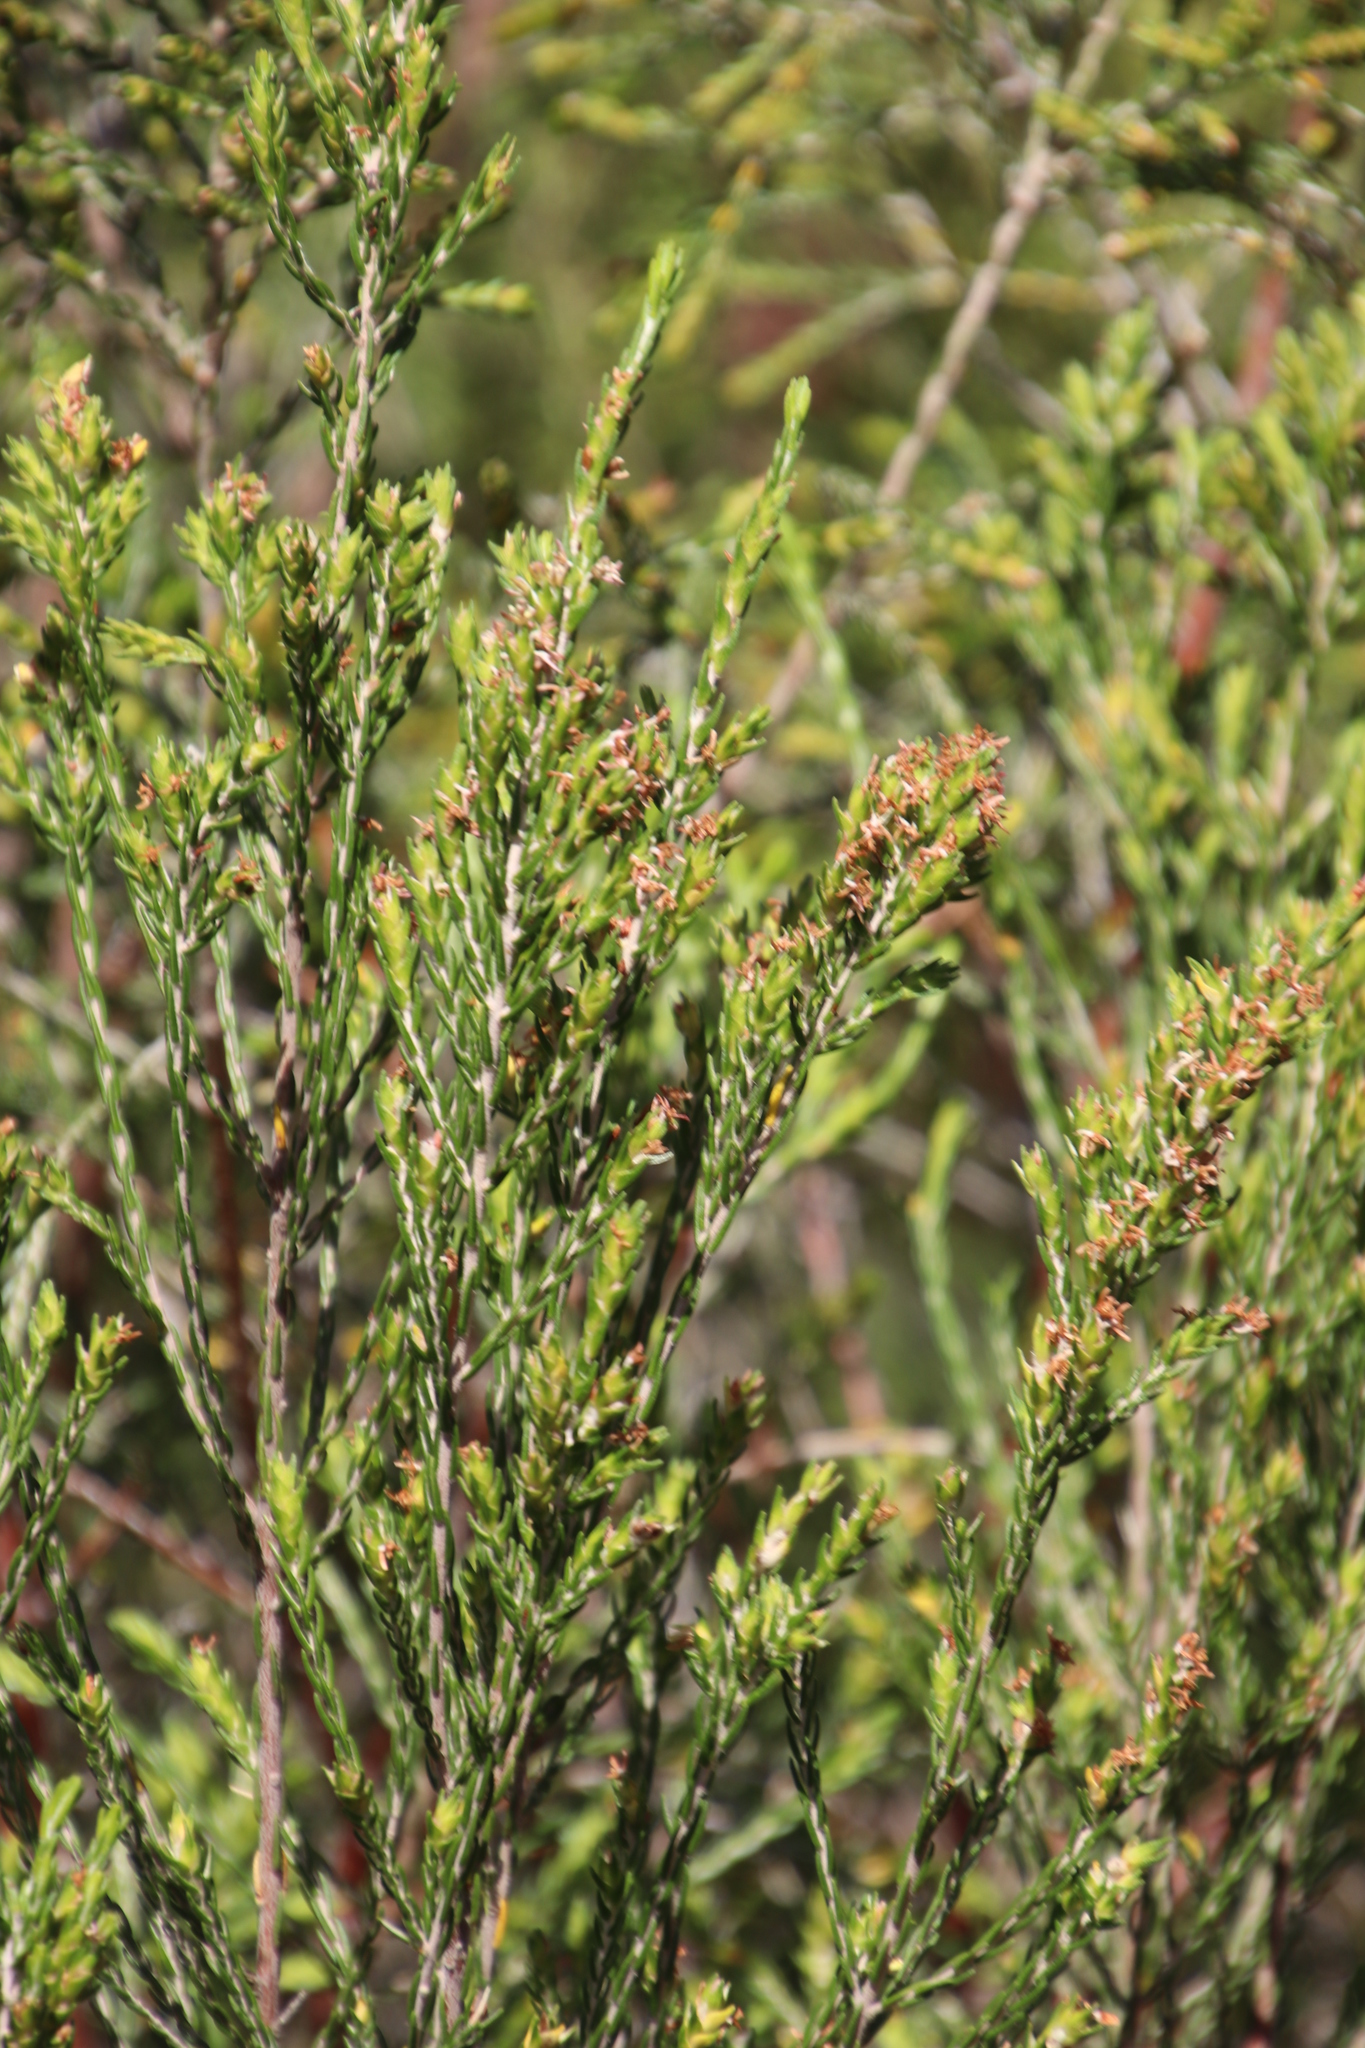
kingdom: Plantae
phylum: Tracheophyta
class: Magnoliopsida
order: Malvales
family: Thymelaeaceae
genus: Passerina
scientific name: Passerina corymbosa
